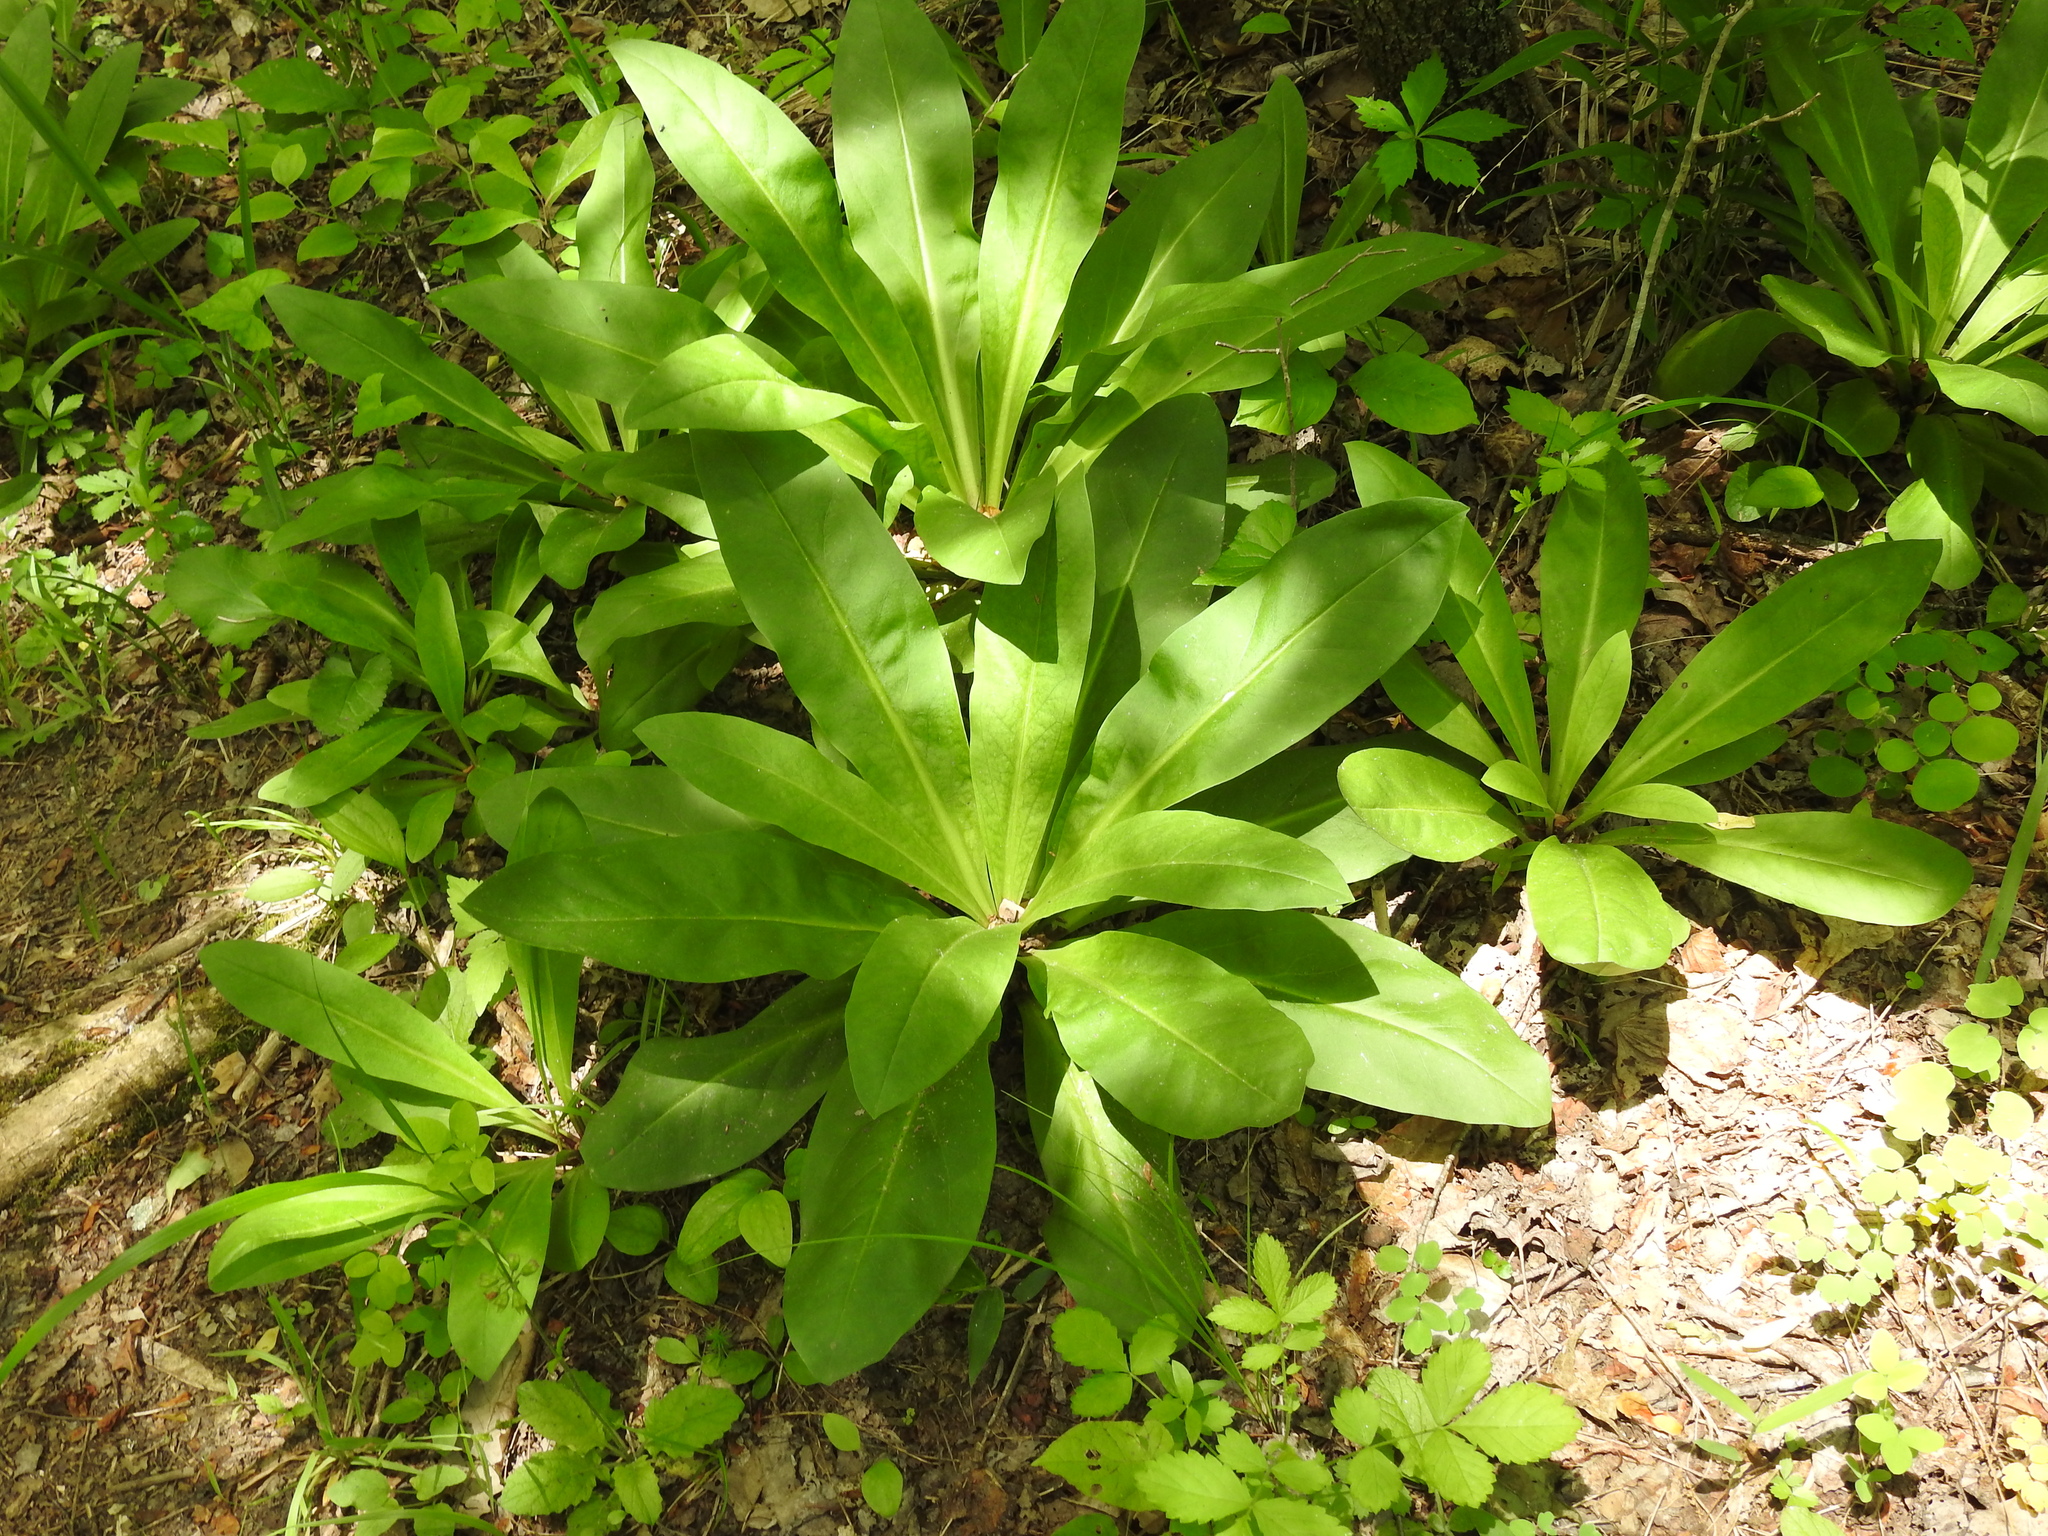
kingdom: Plantae
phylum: Tracheophyta
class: Magnoliopsida
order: Gentianales
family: Gentianaceae
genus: Frasera
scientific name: Frasera caroliniensis
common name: American columbo
